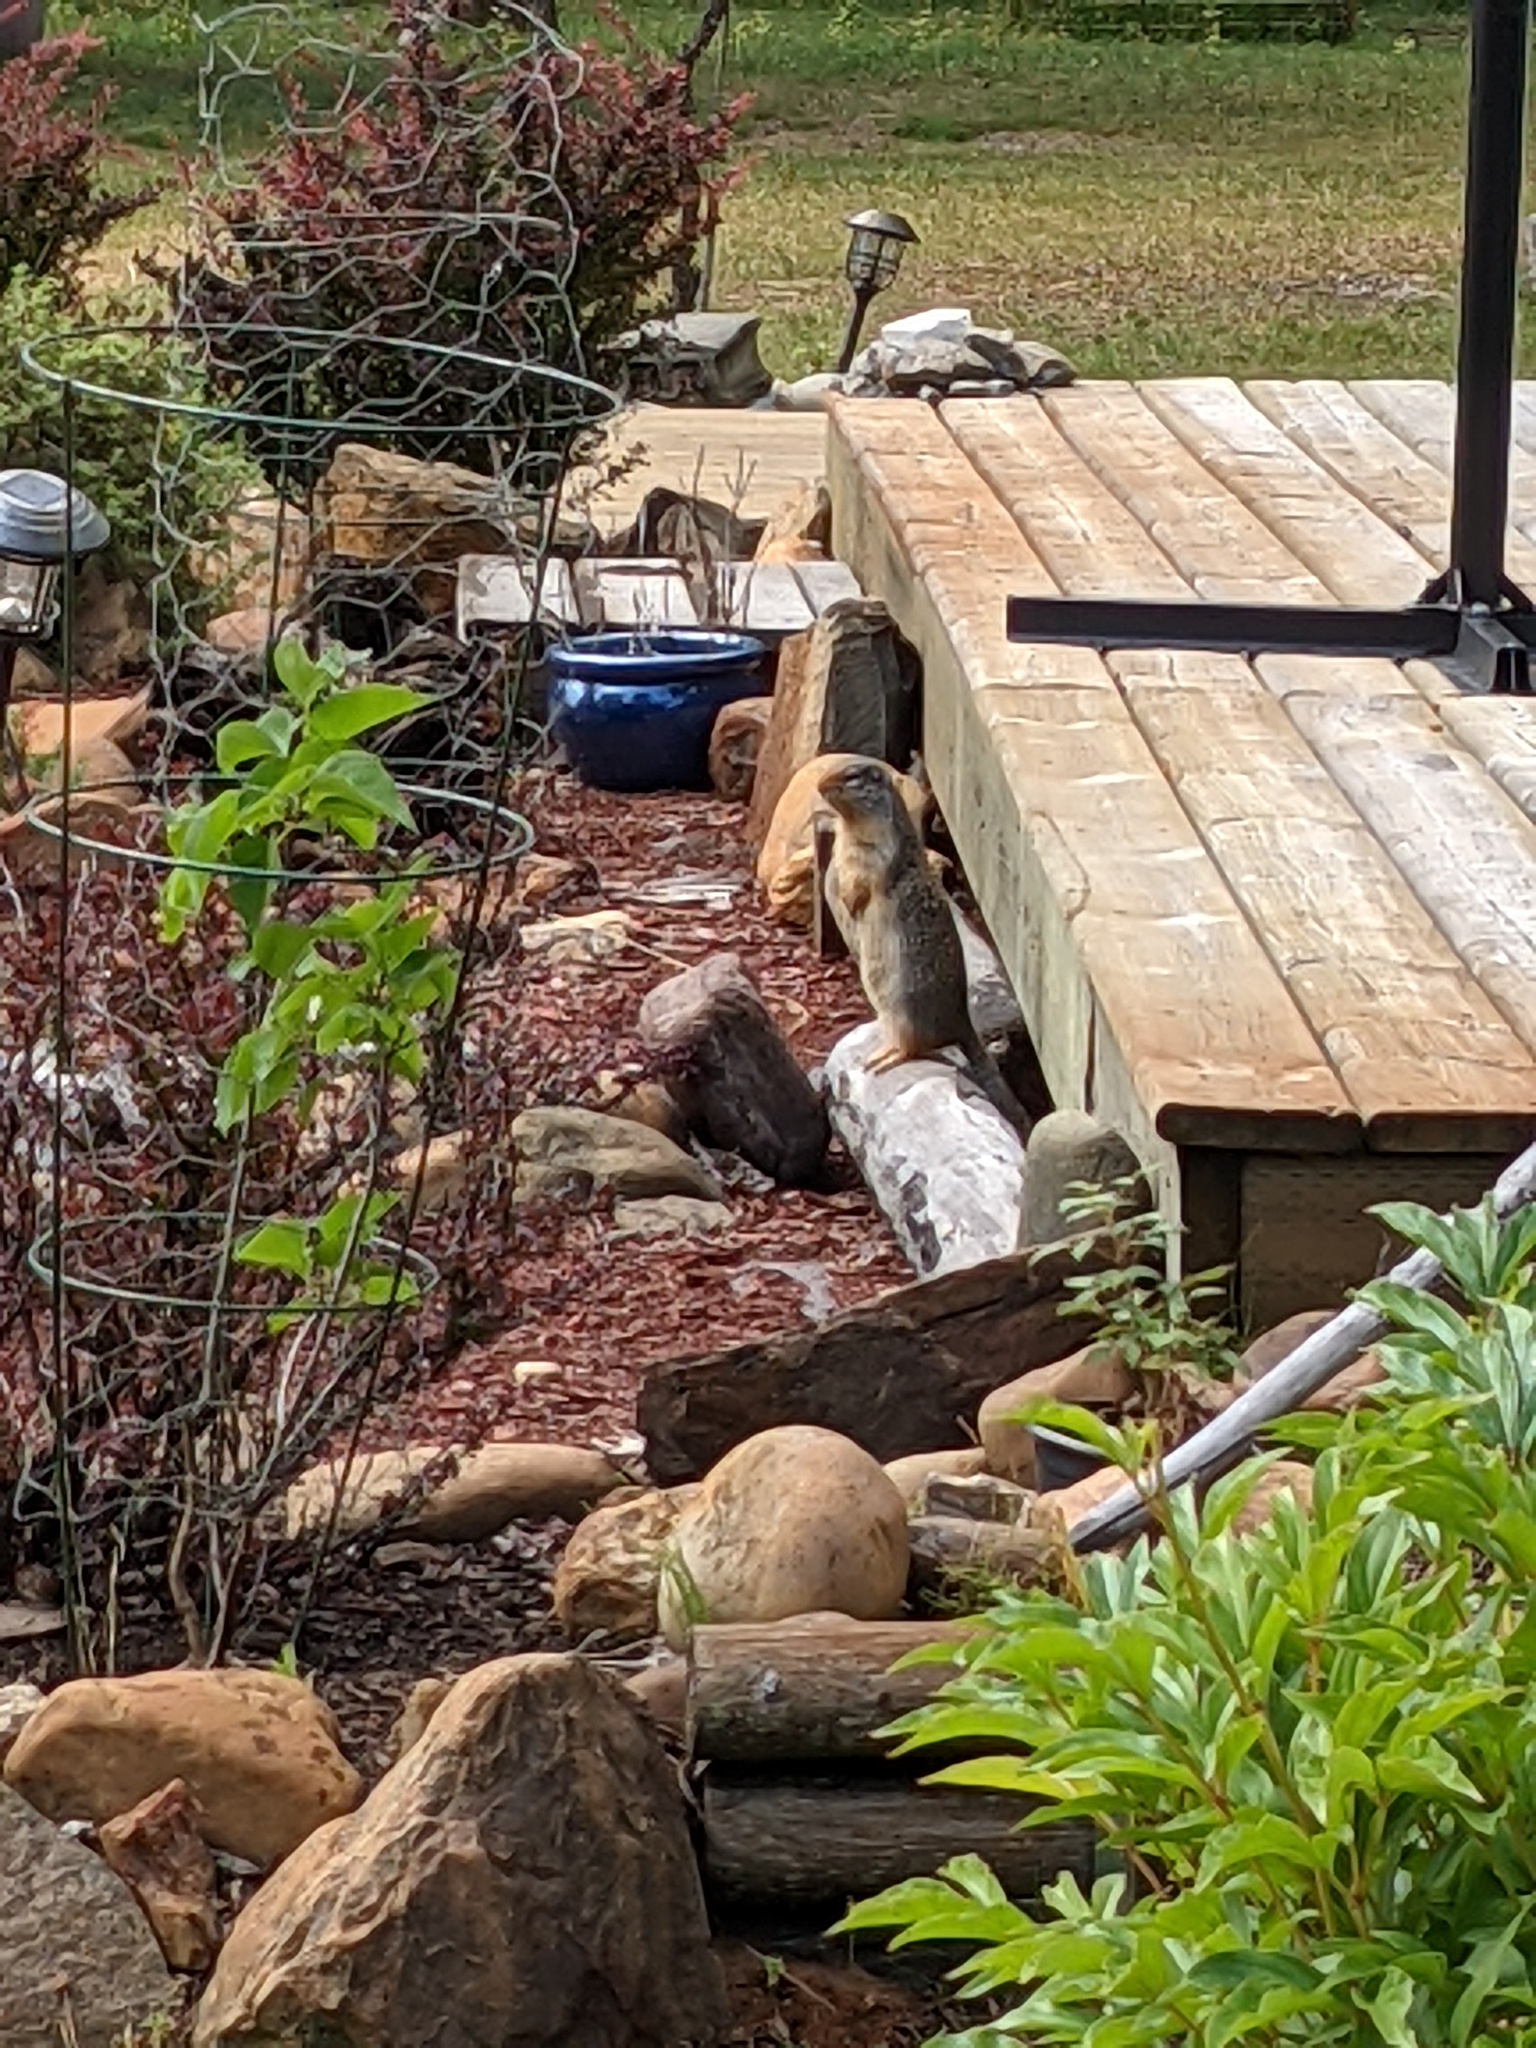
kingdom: Animalia
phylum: Chordata
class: Mammalia
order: Rodentia
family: Sciuridae
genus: Urocitellus
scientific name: Urocitellus columbianus
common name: Columbian ground squirrel
